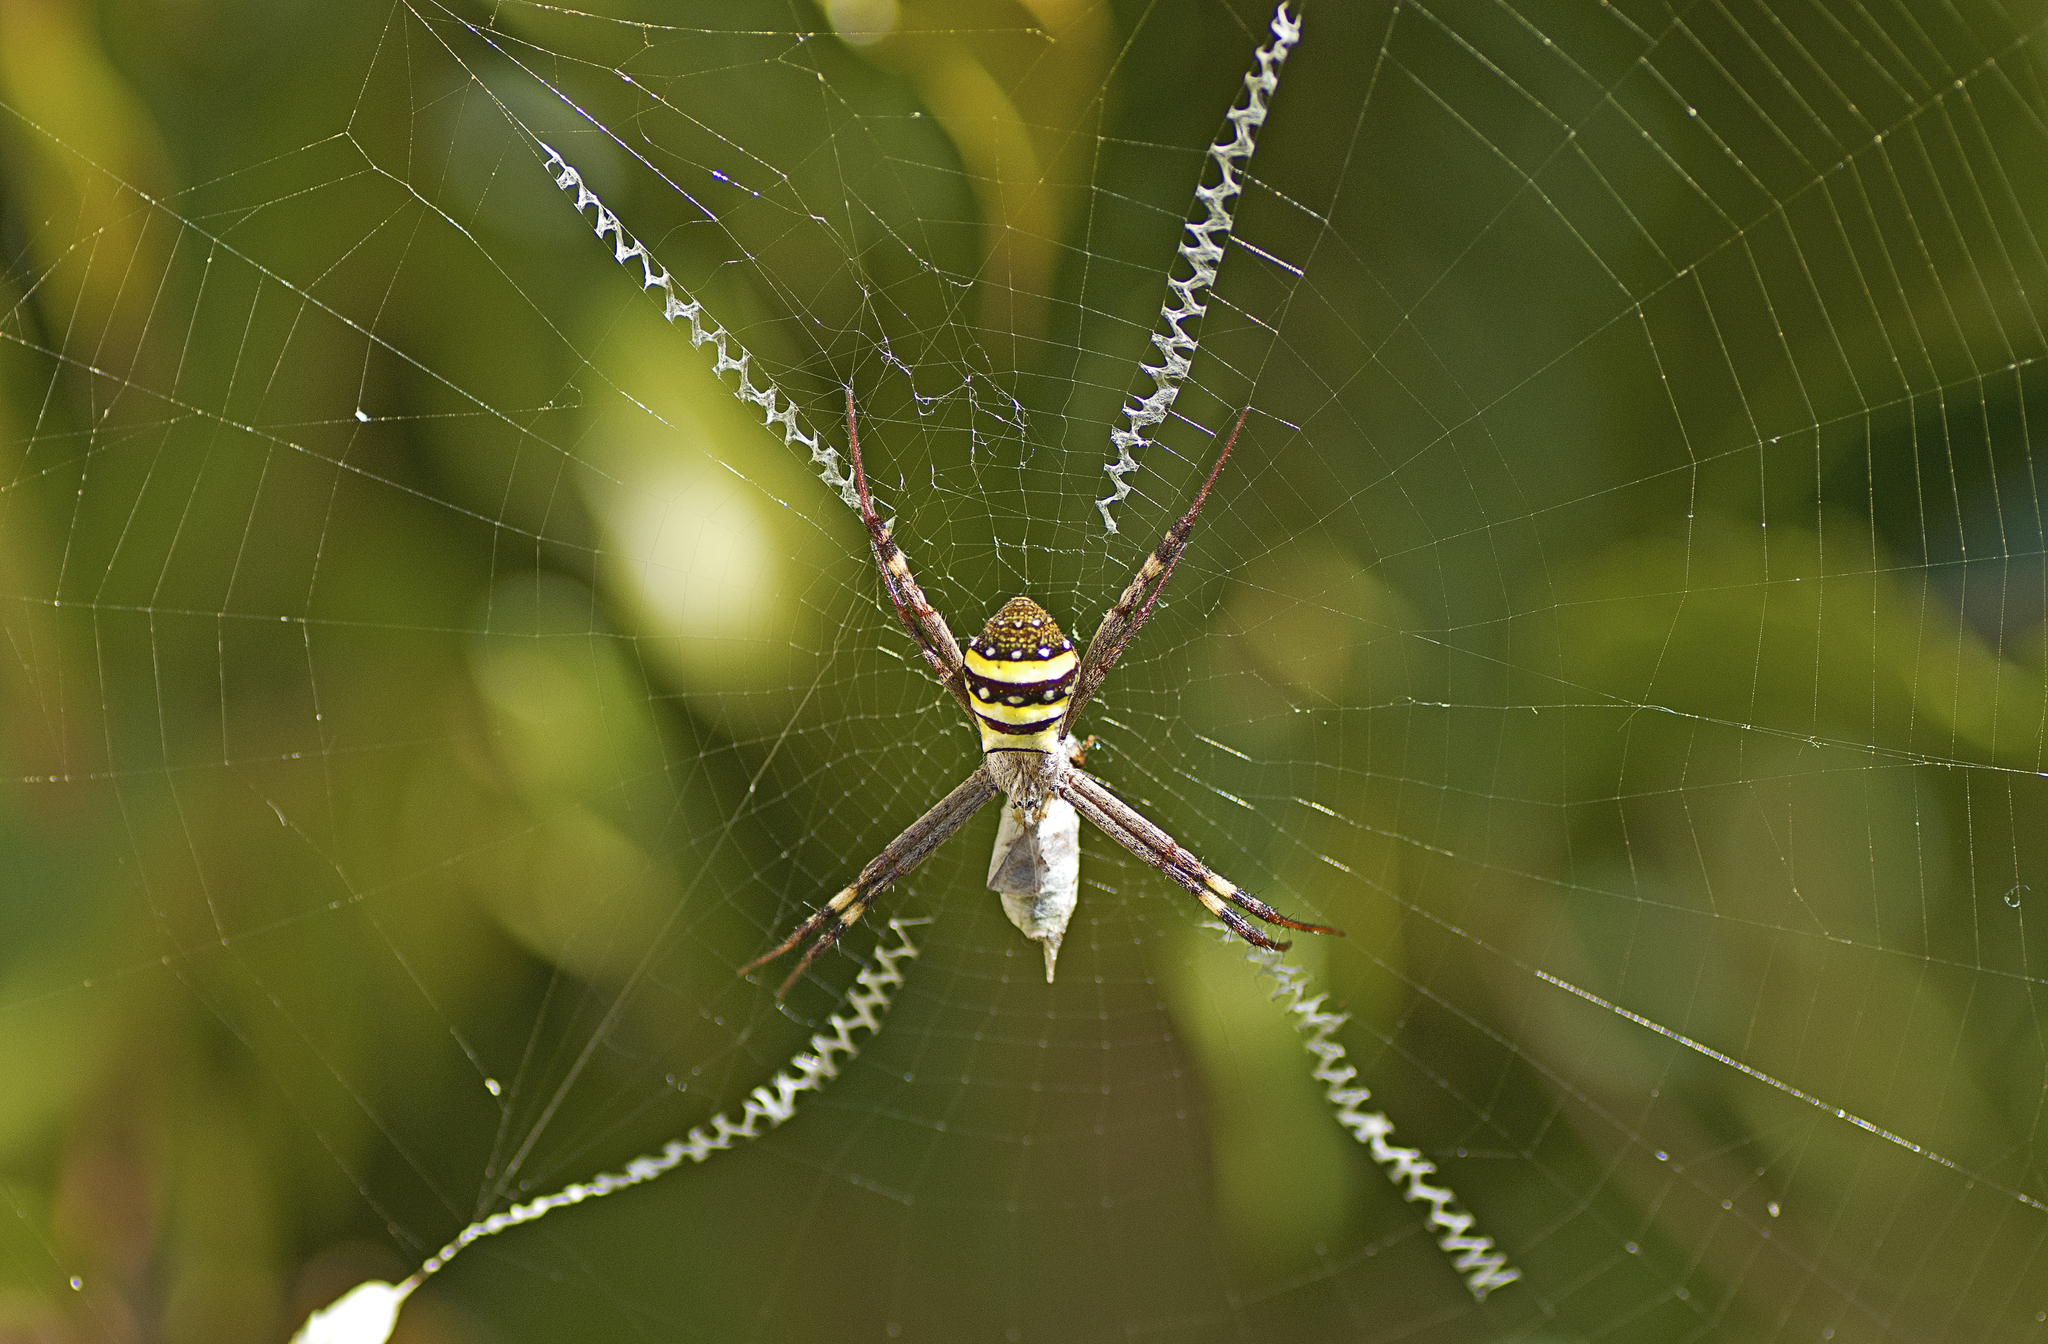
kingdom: Animalia
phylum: Arthropoda
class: Arachnida
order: Araneae
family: Araneidae
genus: Argiope
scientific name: Argiope keyserlingi
